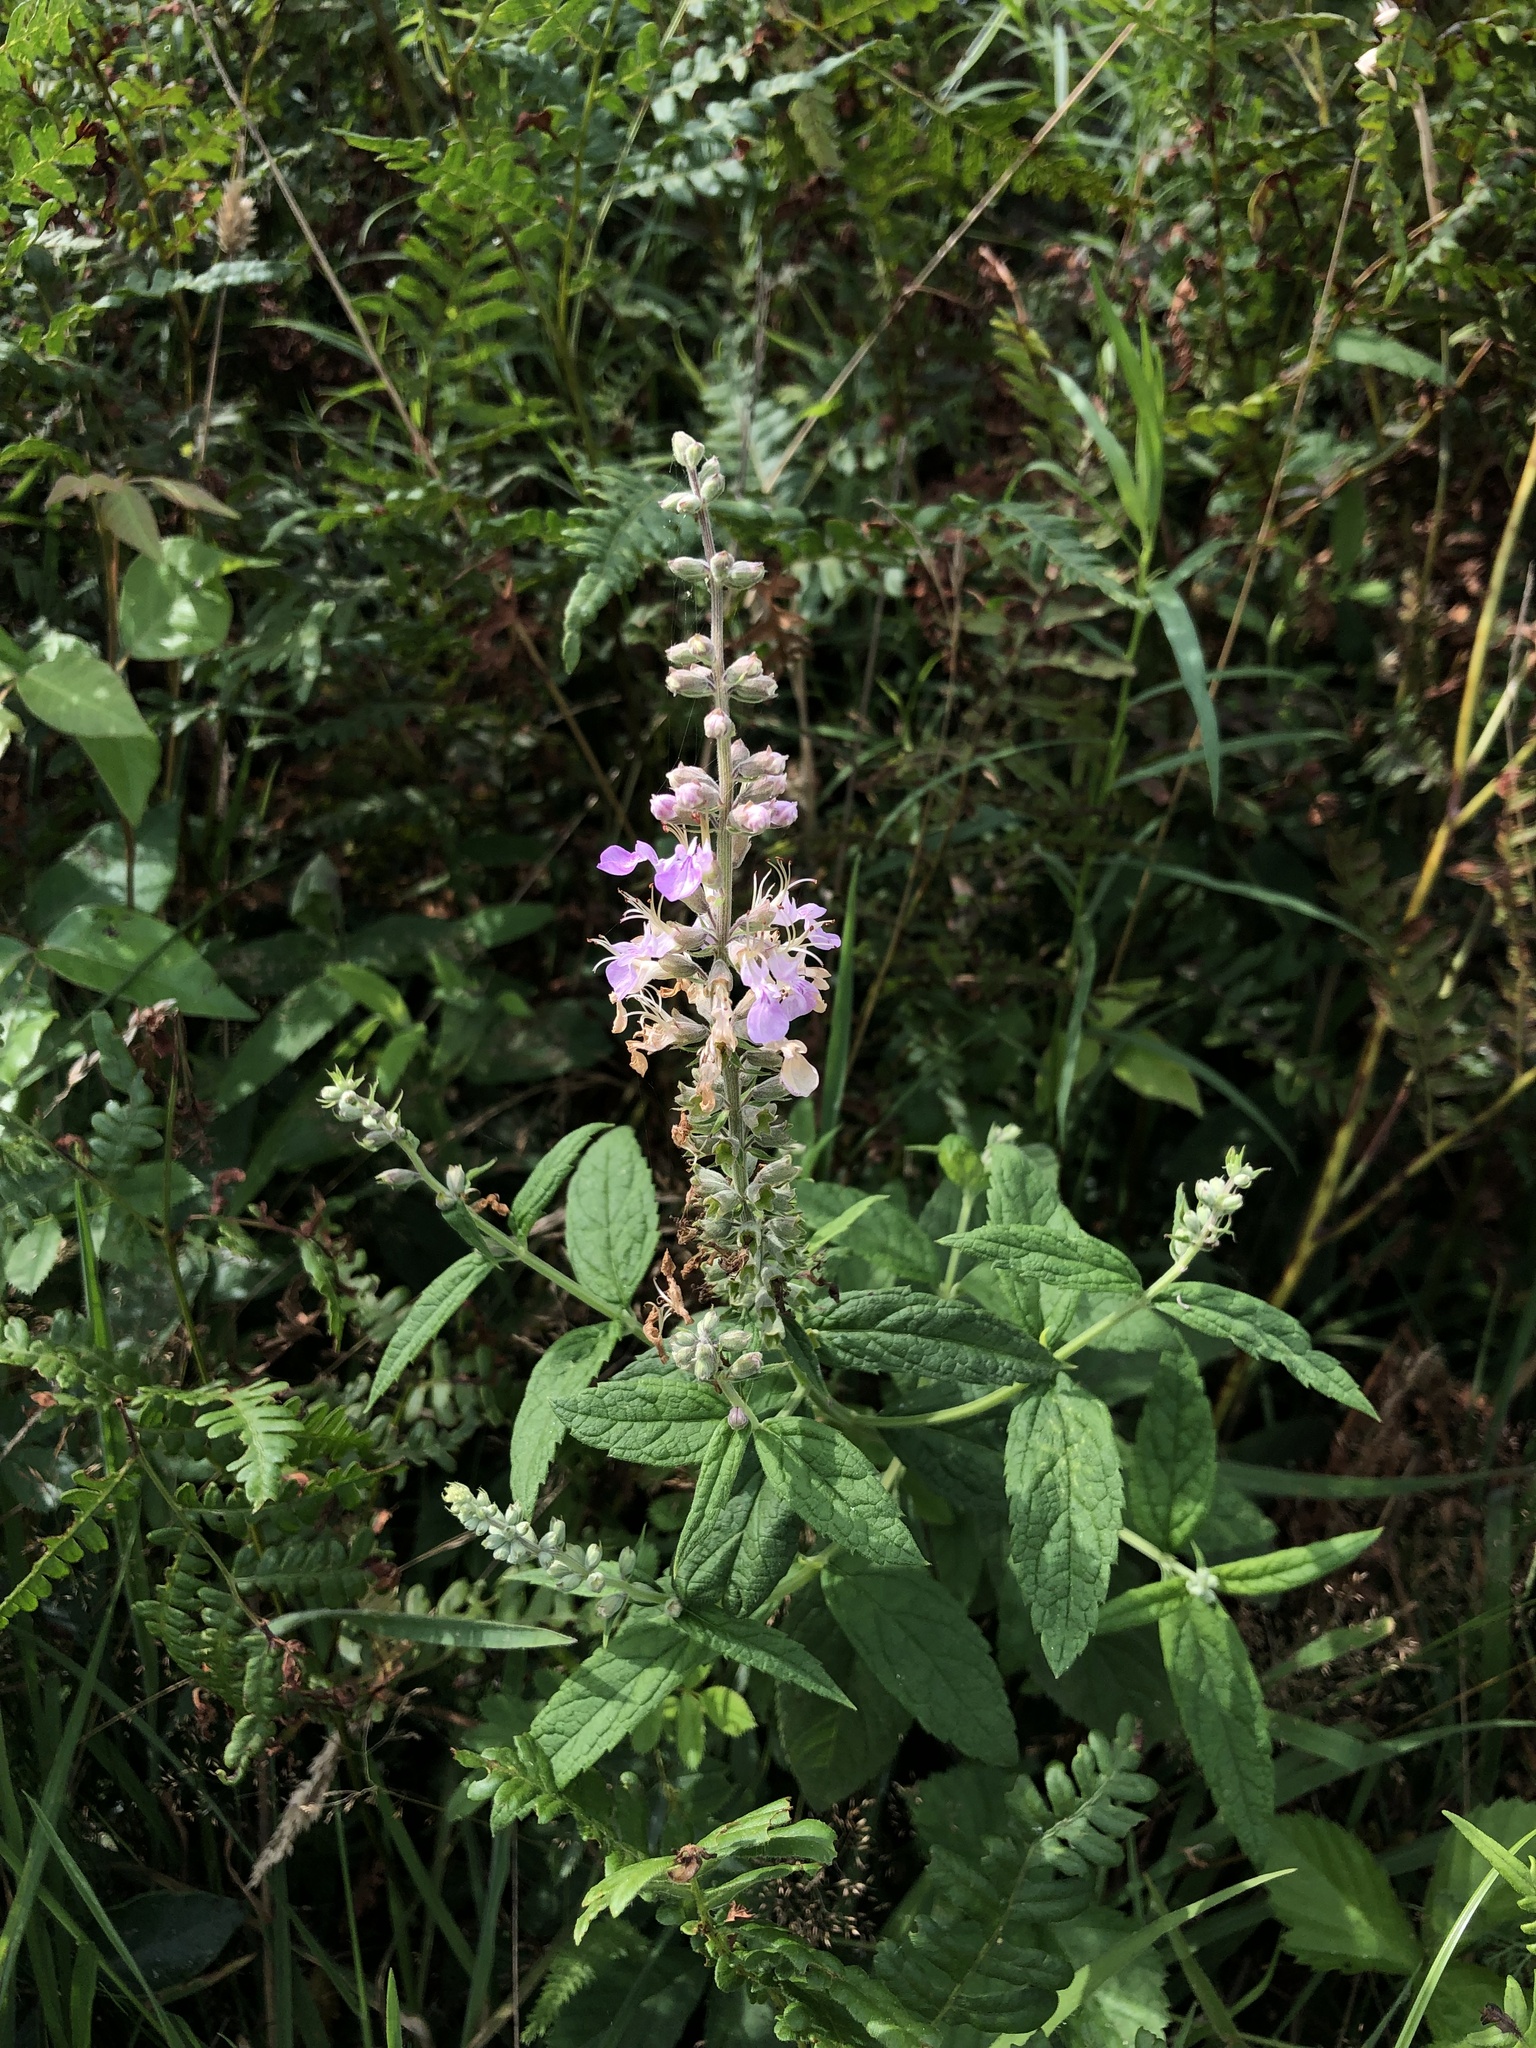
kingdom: Plantae
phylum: Tracheophyta
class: Magnoliopsida
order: Lamiales
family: Lamiaceae
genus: Teucrium
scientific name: Teucrium canadense
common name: American germander
